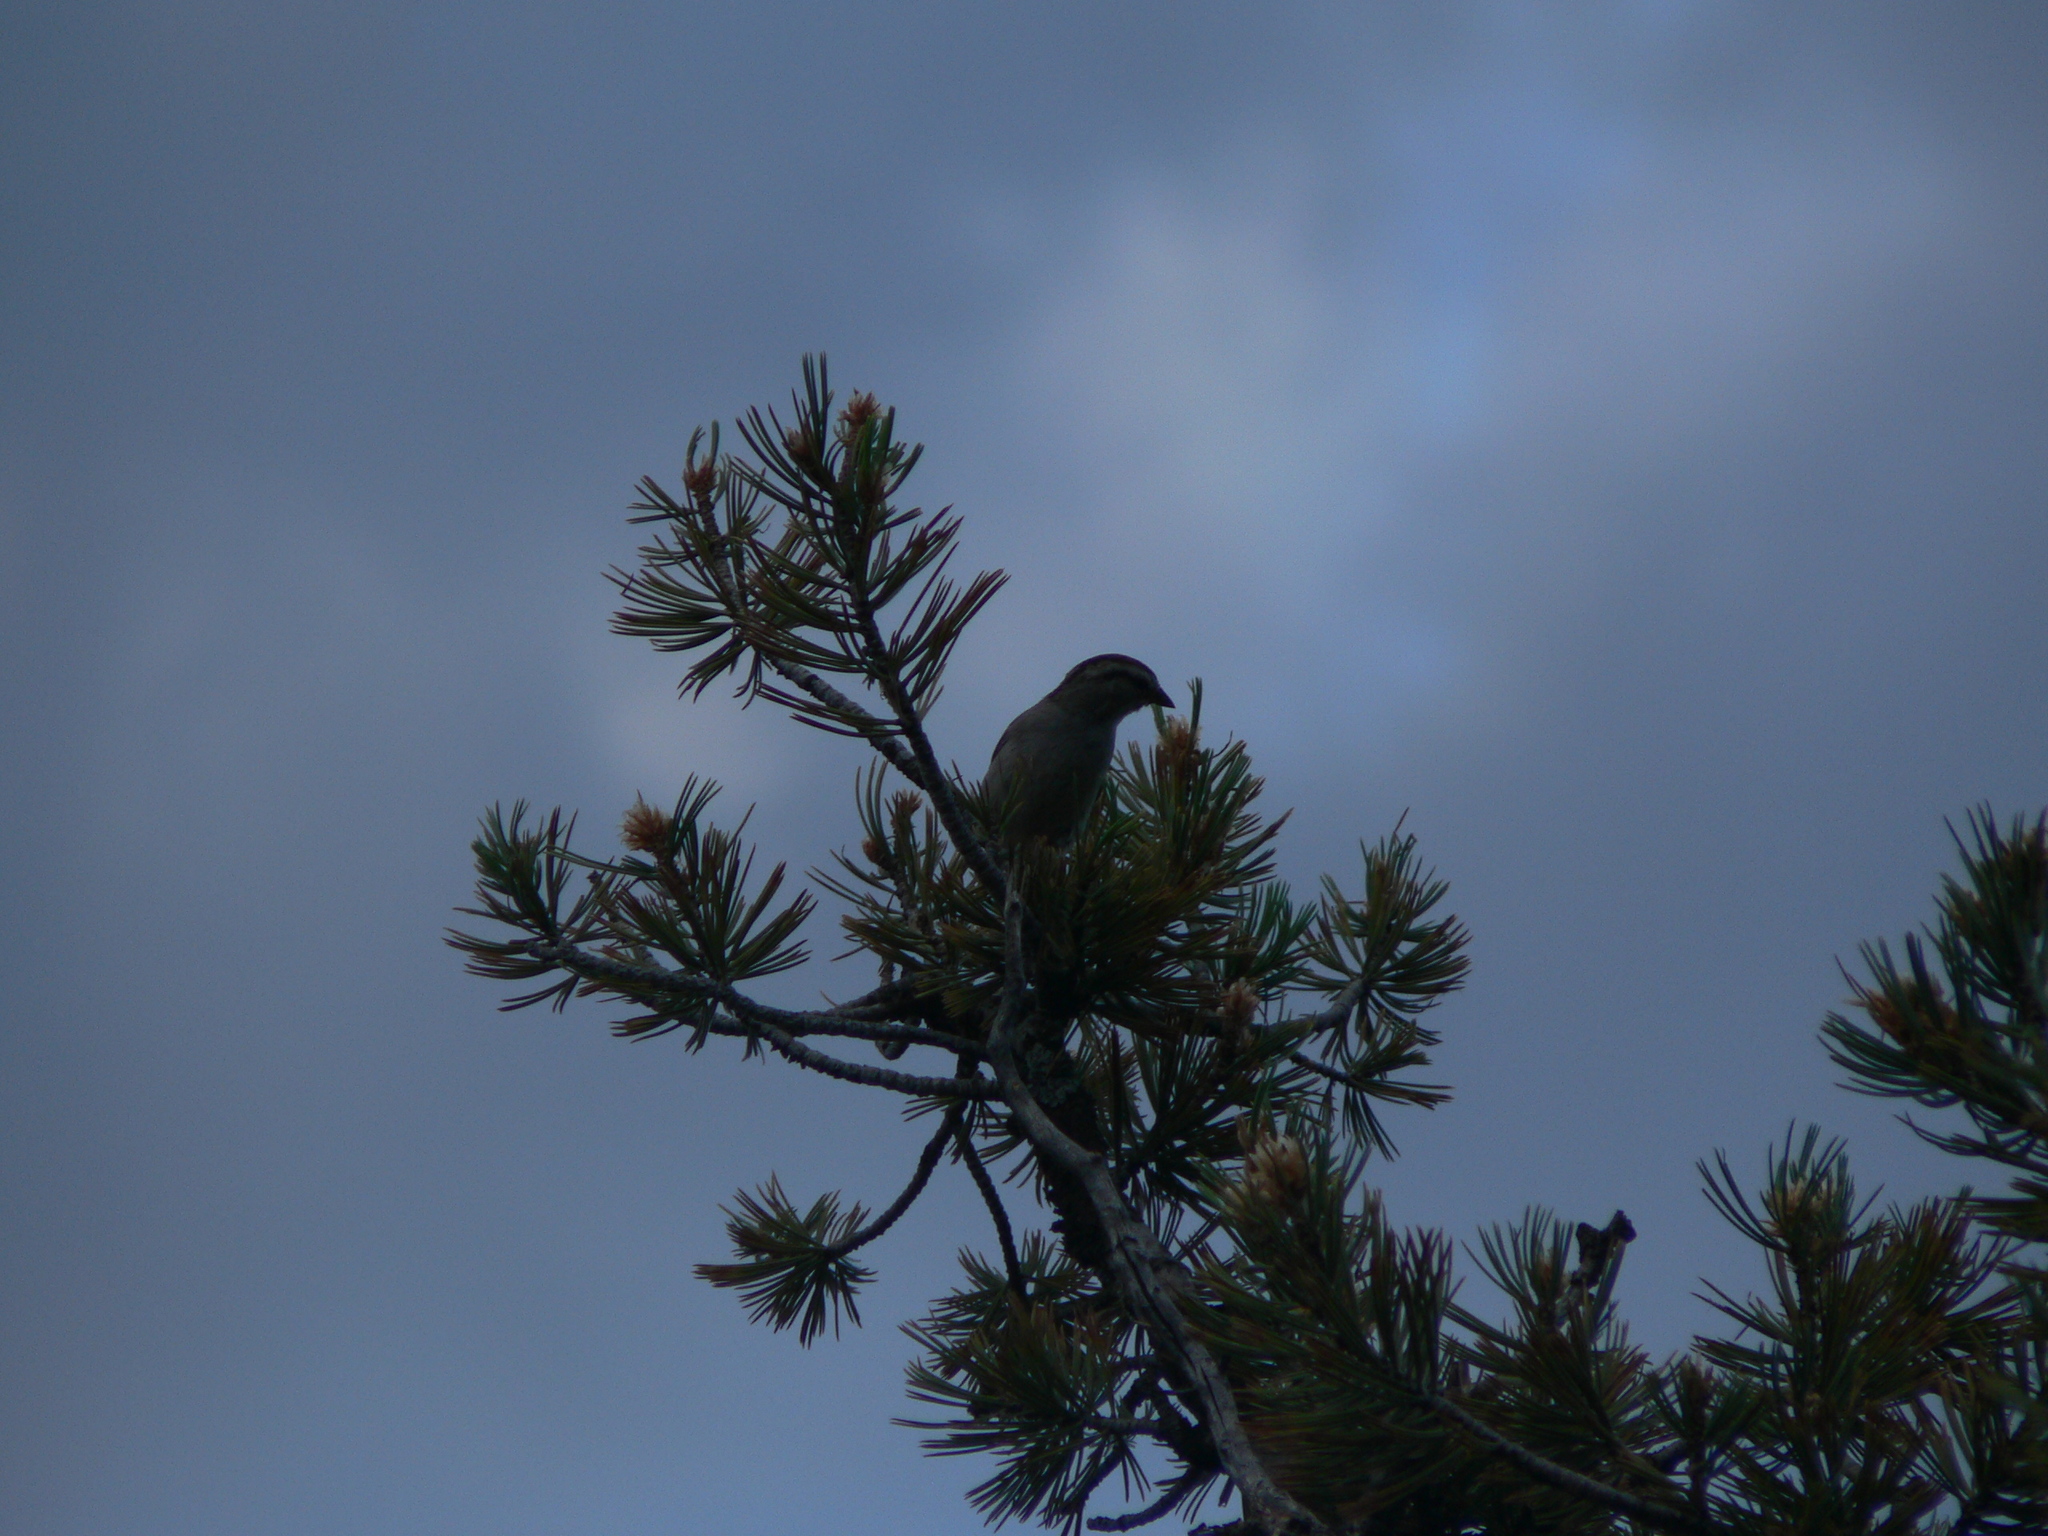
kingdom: Animalia
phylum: Chordata
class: Aves
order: Passeriformes
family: Passerellidae
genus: Spizella
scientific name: Spizella passerina
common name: Chipping sparrow
